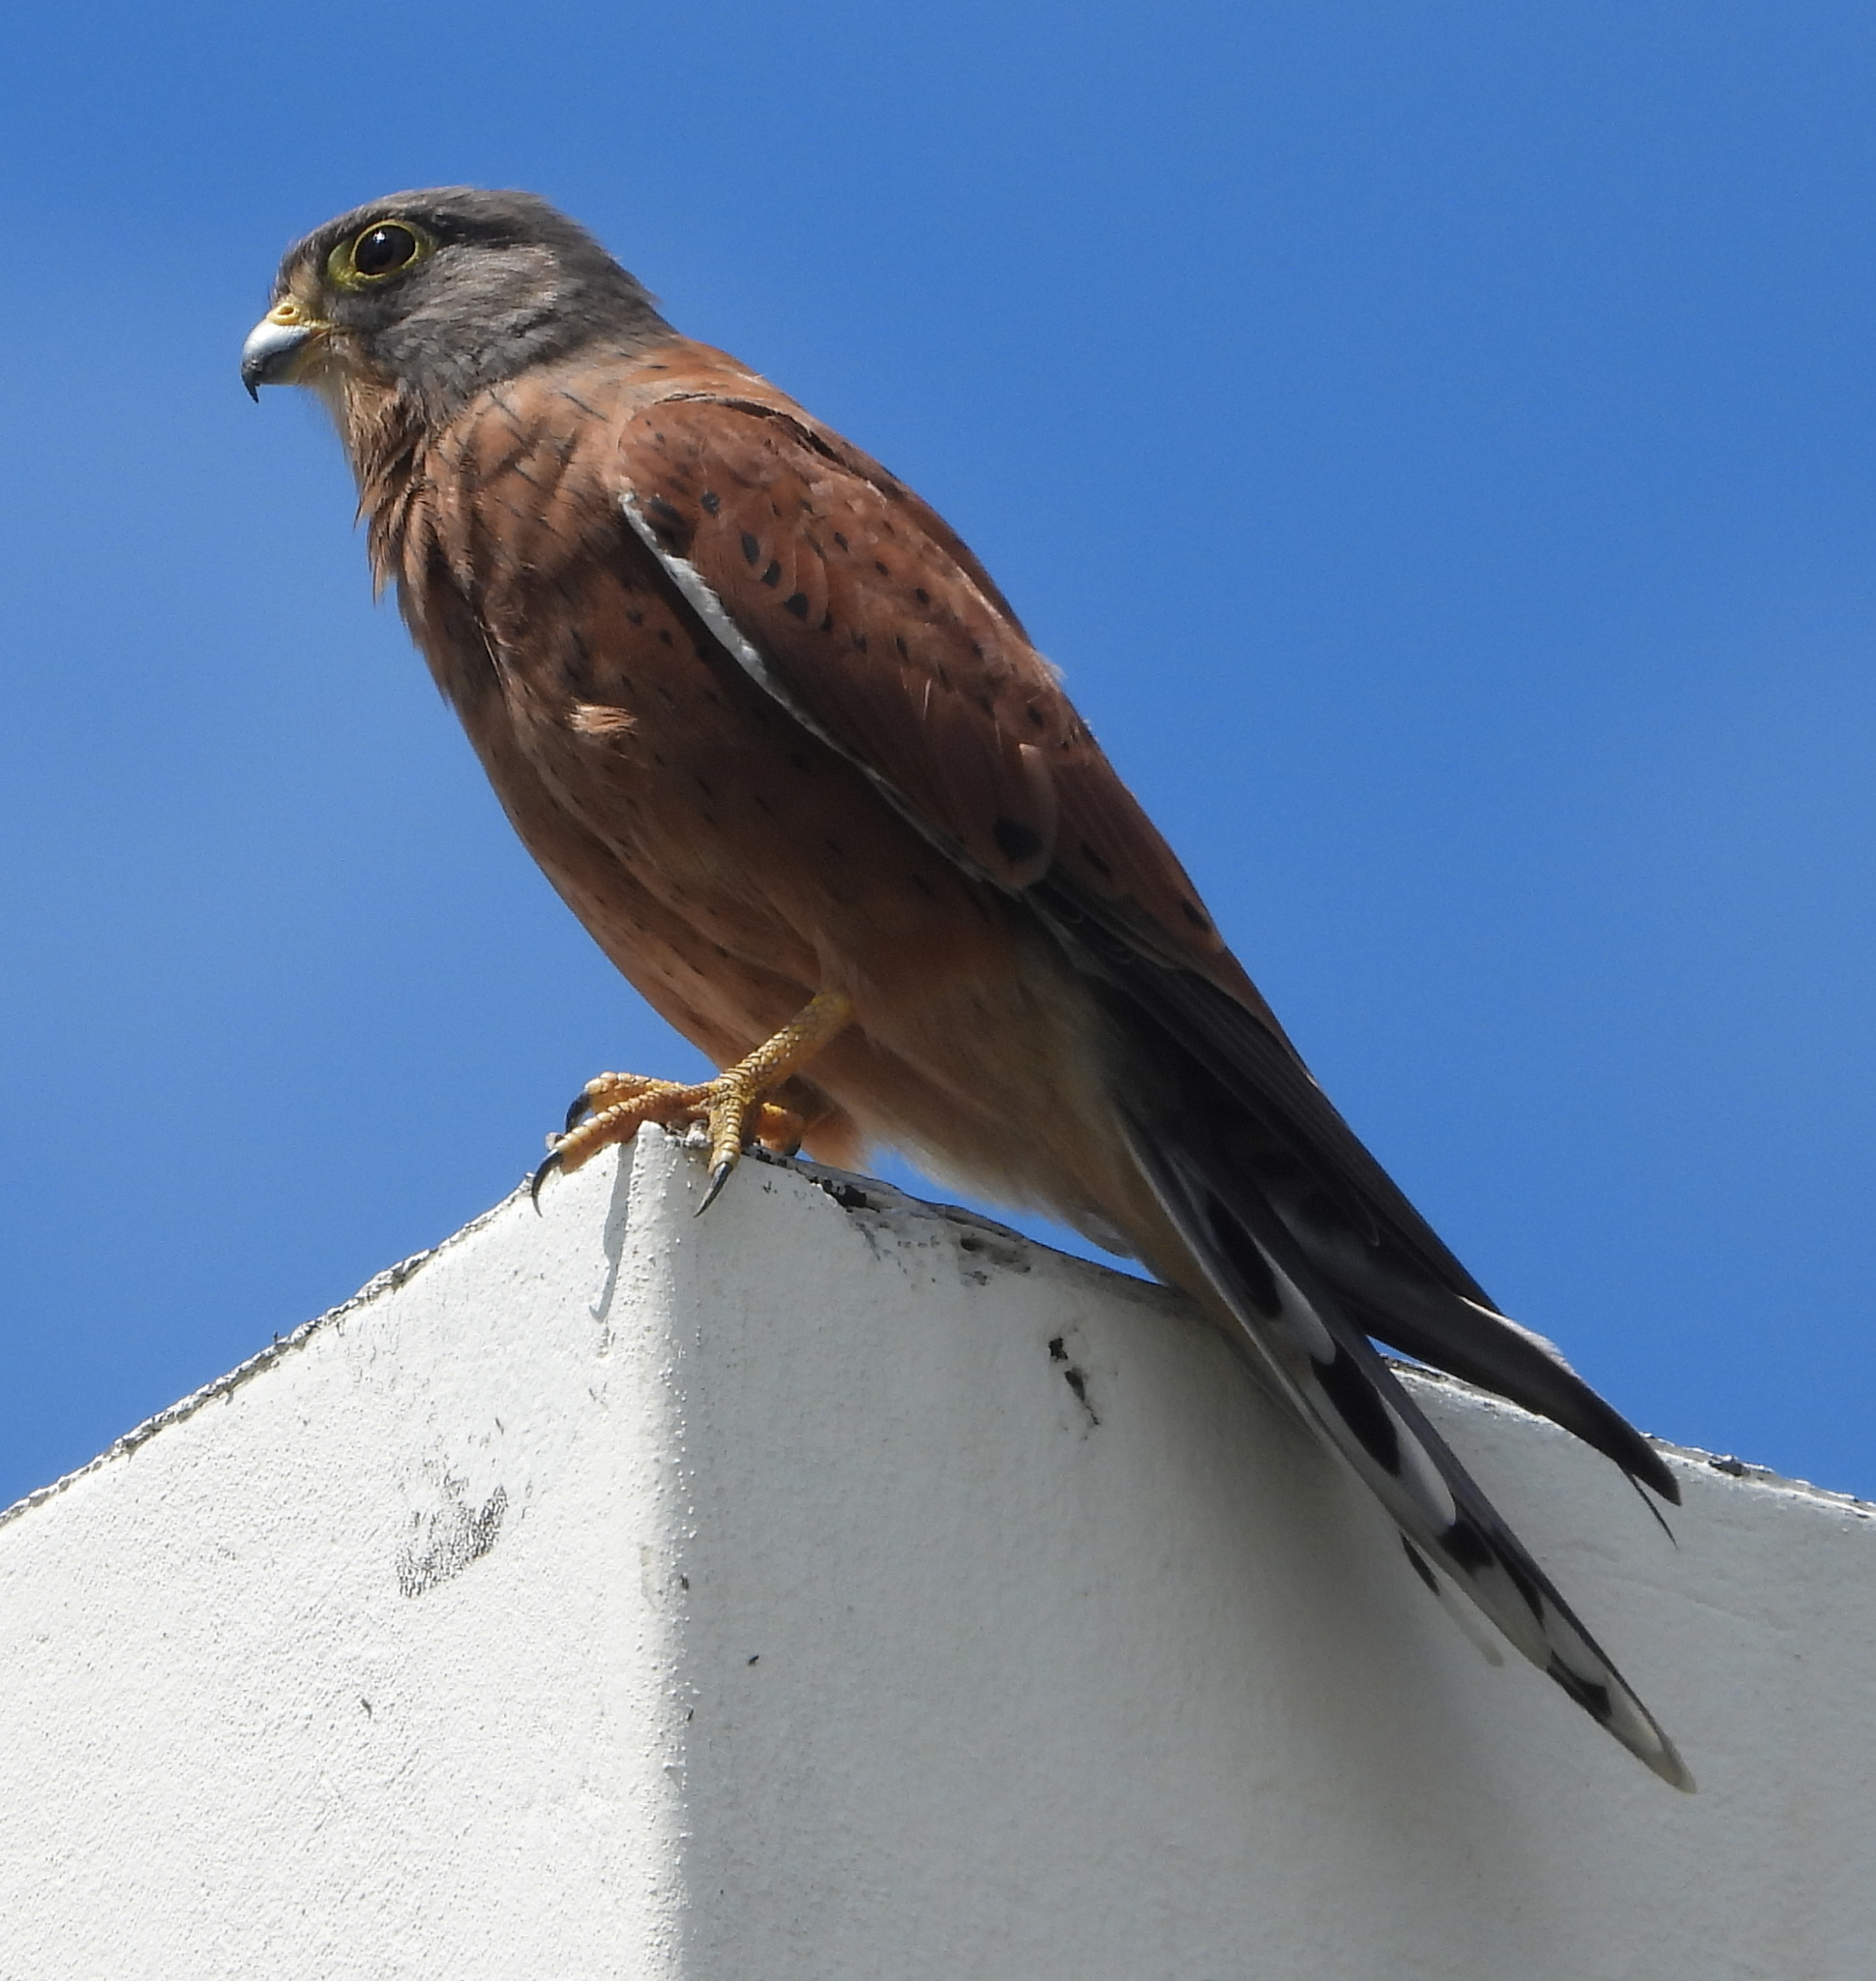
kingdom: Animalia
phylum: Chordata
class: Aves
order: Falconiformes
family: Falconidae
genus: Falco
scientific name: Falco rupicolus
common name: Rock kestrel
